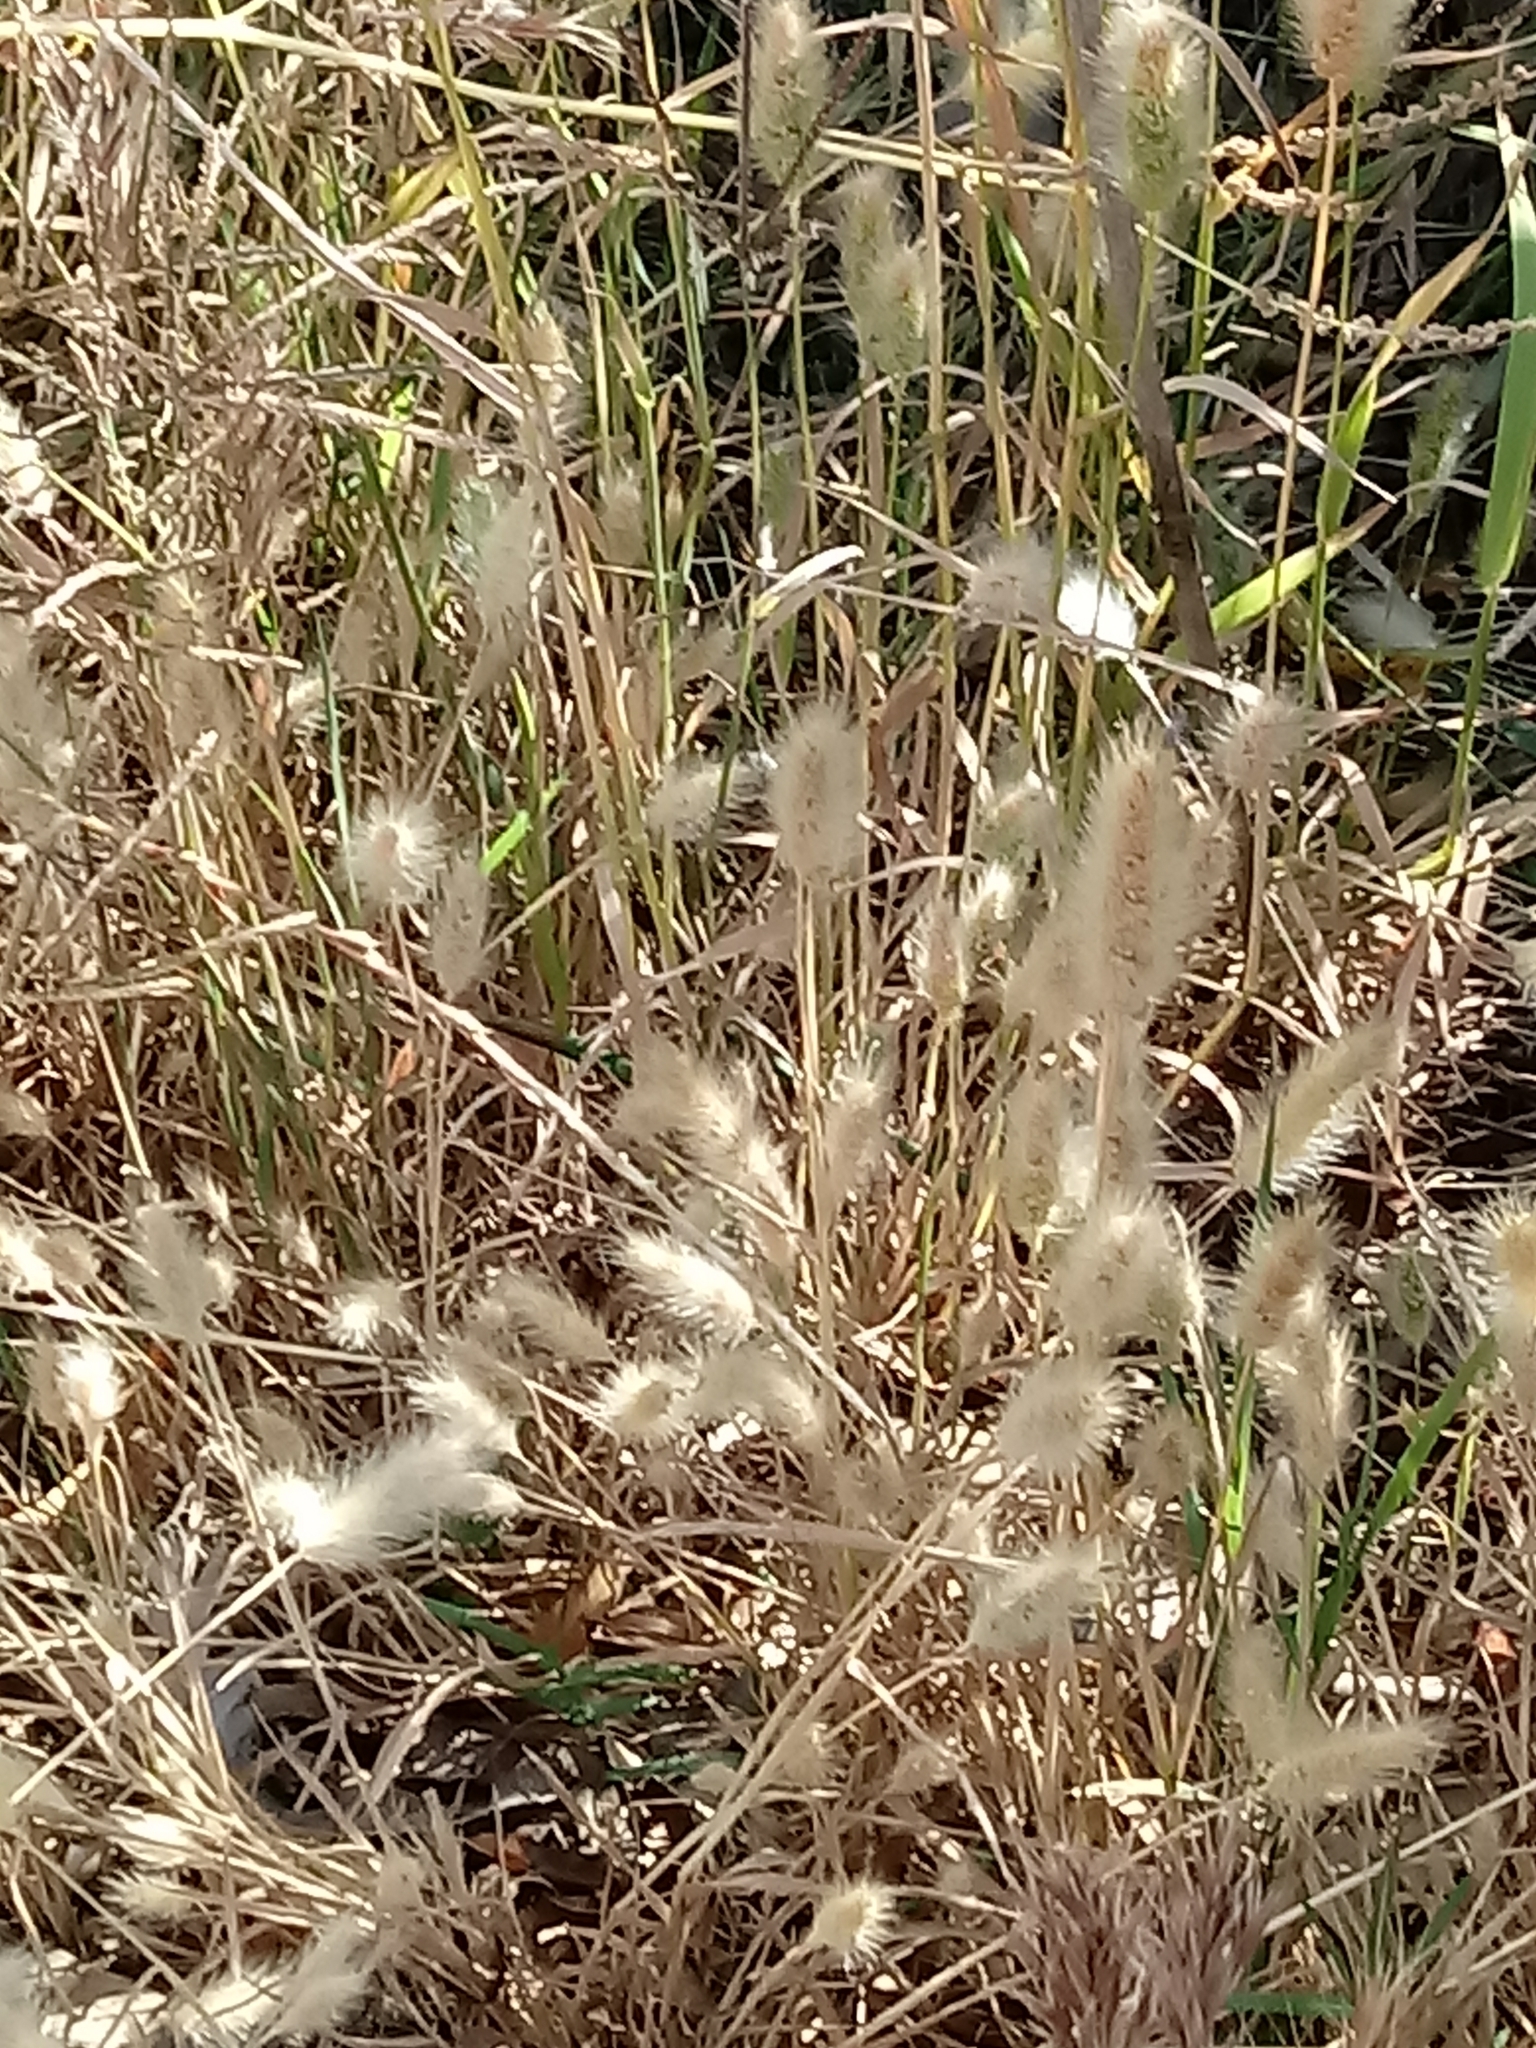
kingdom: Plantae
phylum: Tracheophyta
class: Liliopsida
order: Poales
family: Poaceae
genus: Polypogon
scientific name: Polypogon monspeliensis
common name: Annual rabbitsfoot grass
